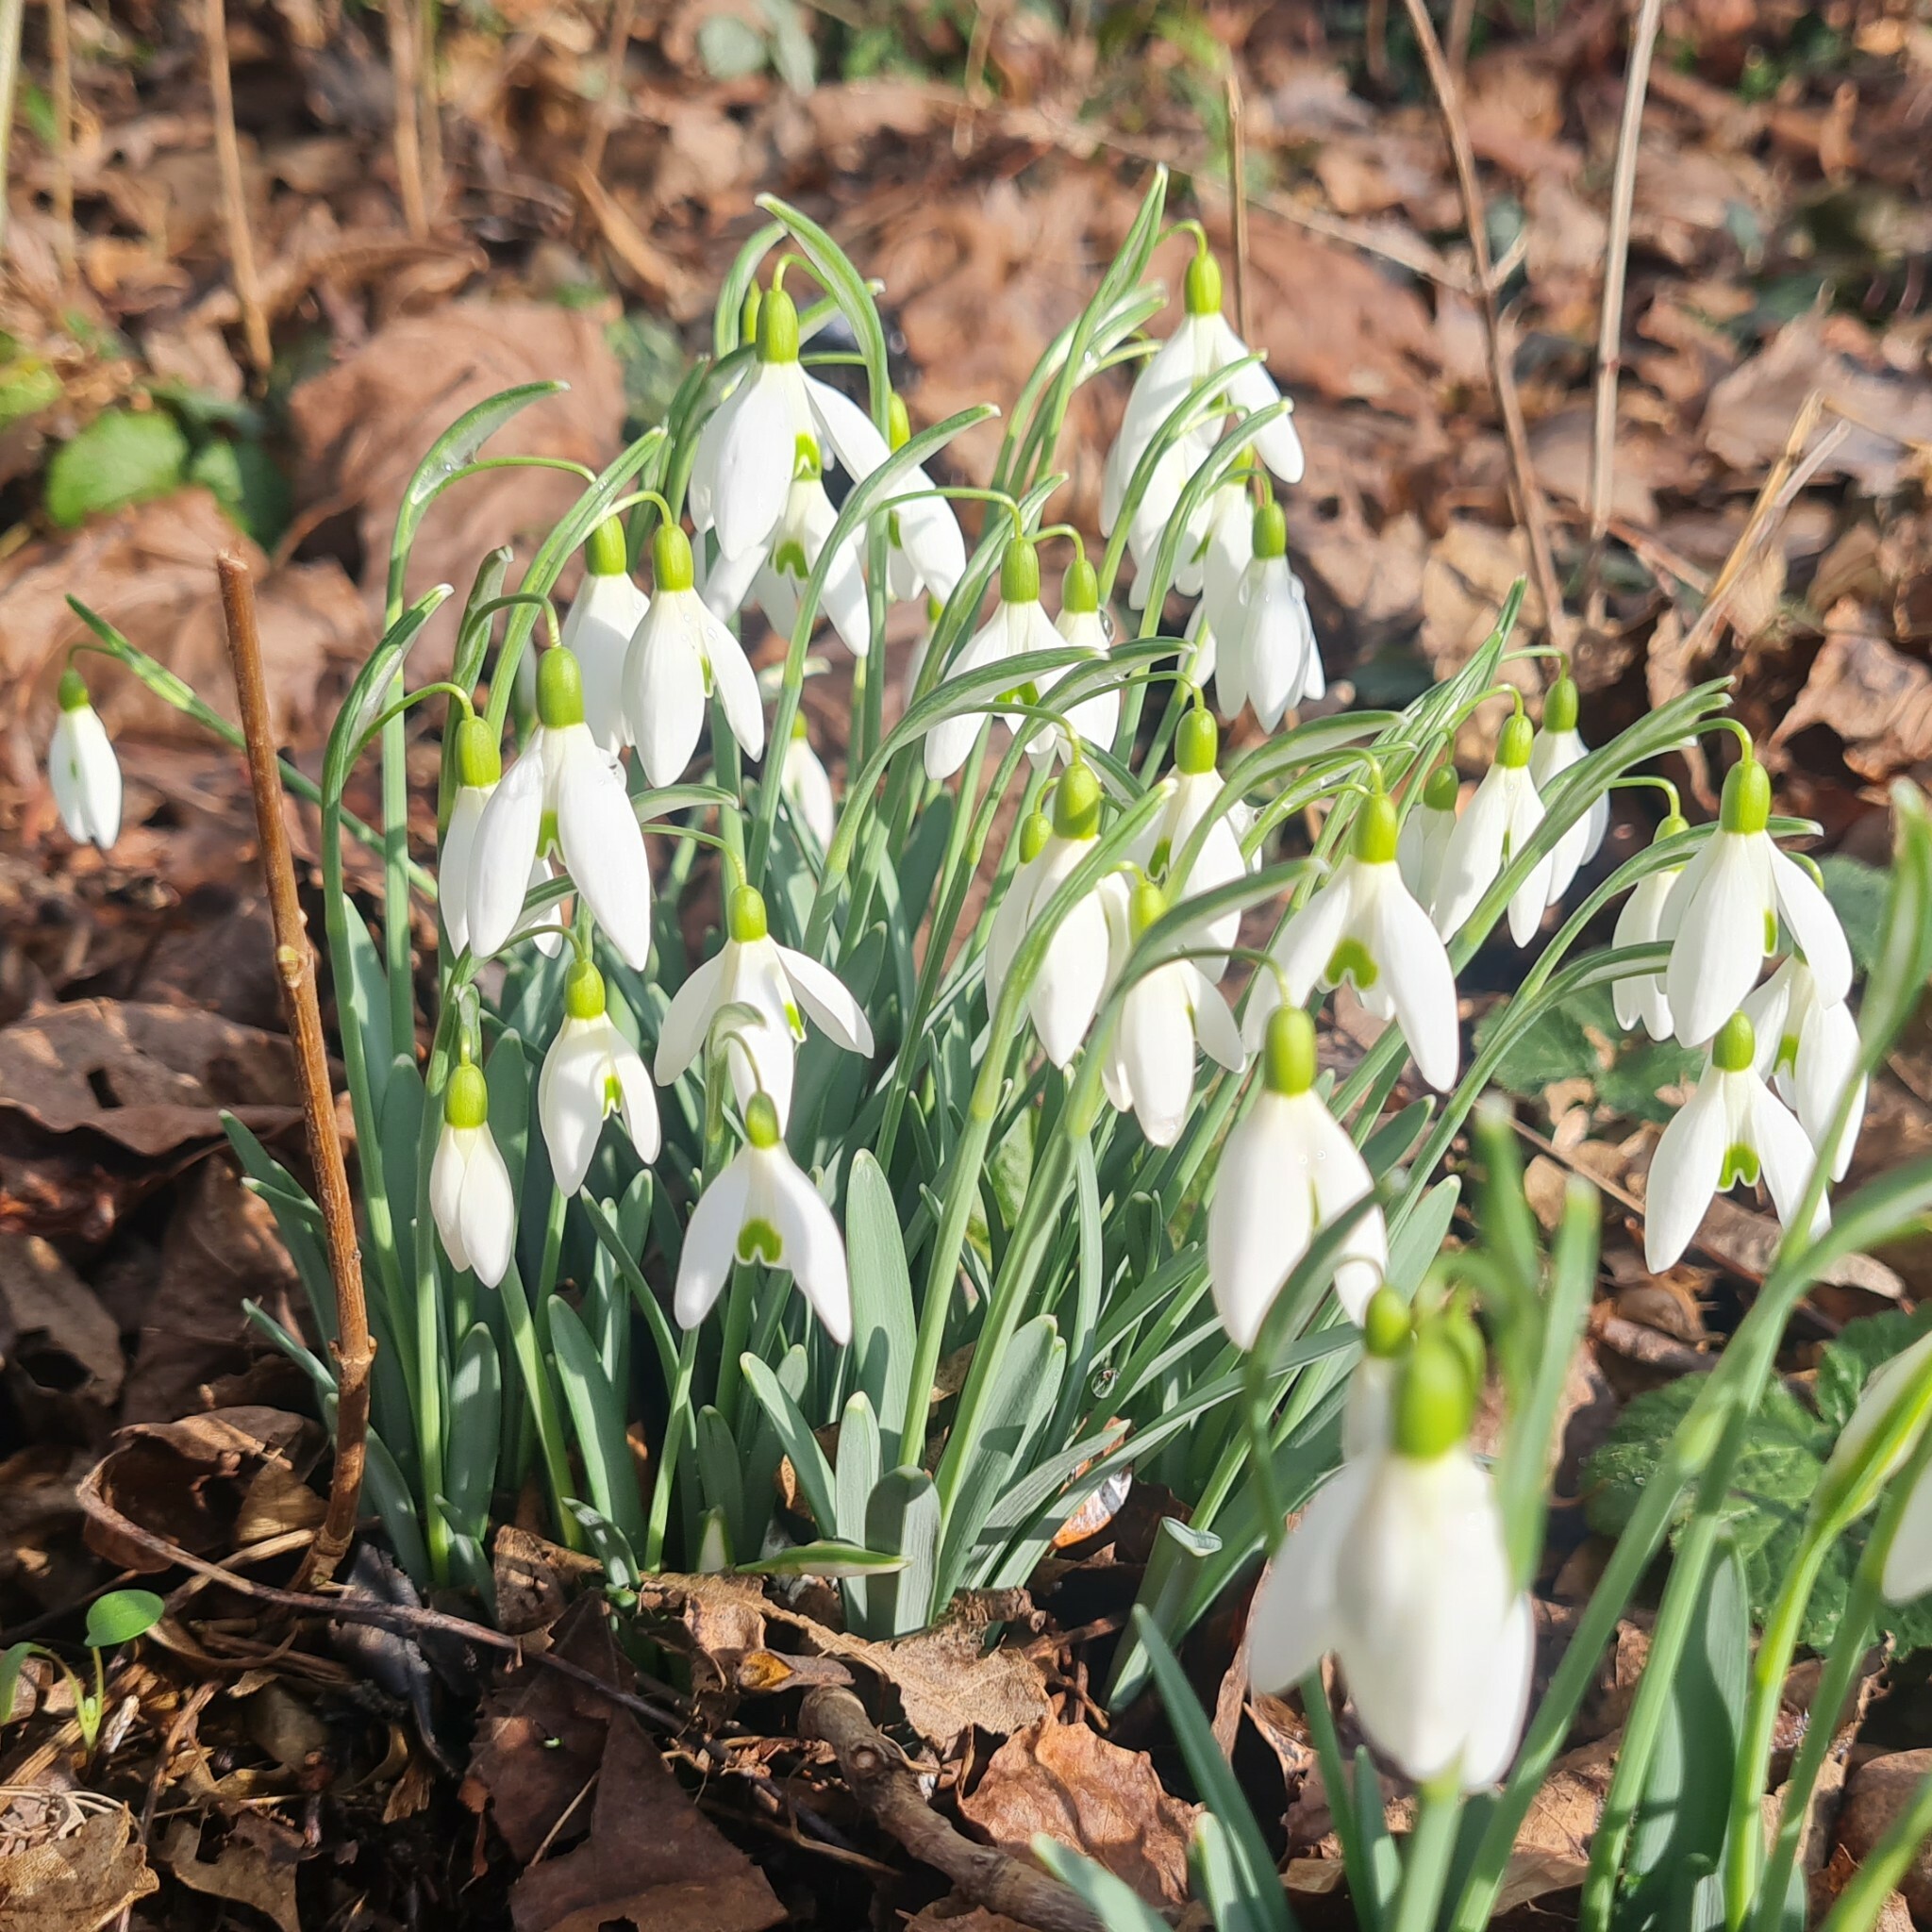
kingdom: Plantae
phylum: Tracheophyta
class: Liliopsida
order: Asparagales
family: Amaryllidaceae
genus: Galanthus
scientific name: Galanthus nivalis
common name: Snowdrop
